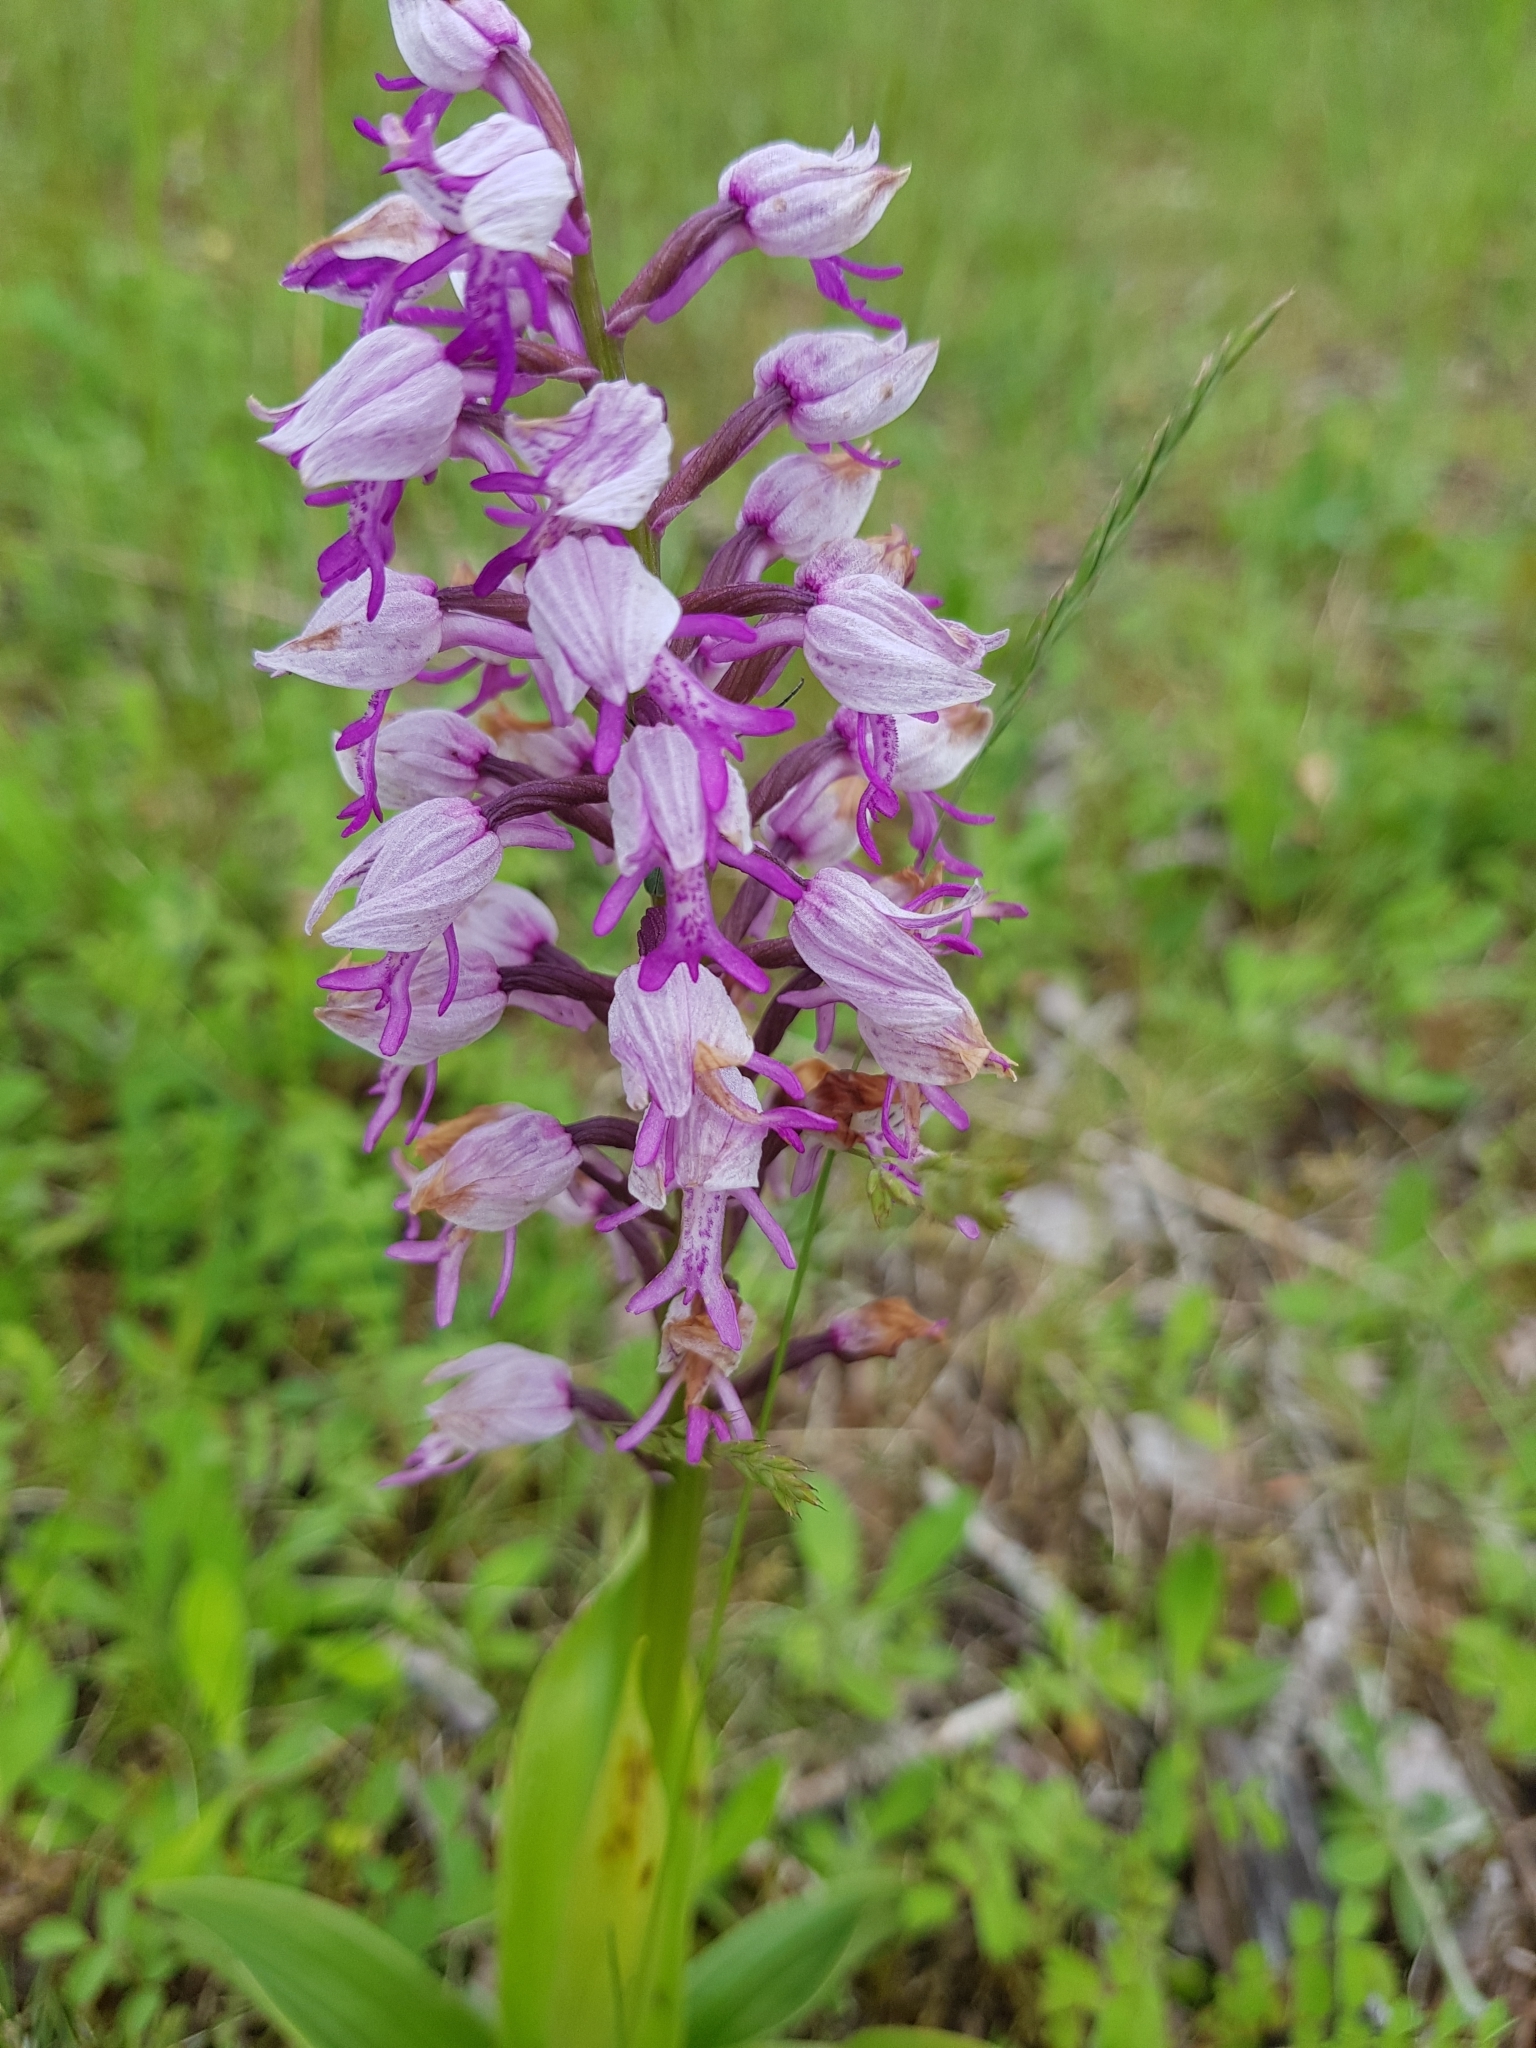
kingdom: Plantae
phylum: Tracheophyta
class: Liliopsida
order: Asparagales
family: Orchidaceae
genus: Orchis
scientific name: Orchis militaris
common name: Military orchid
